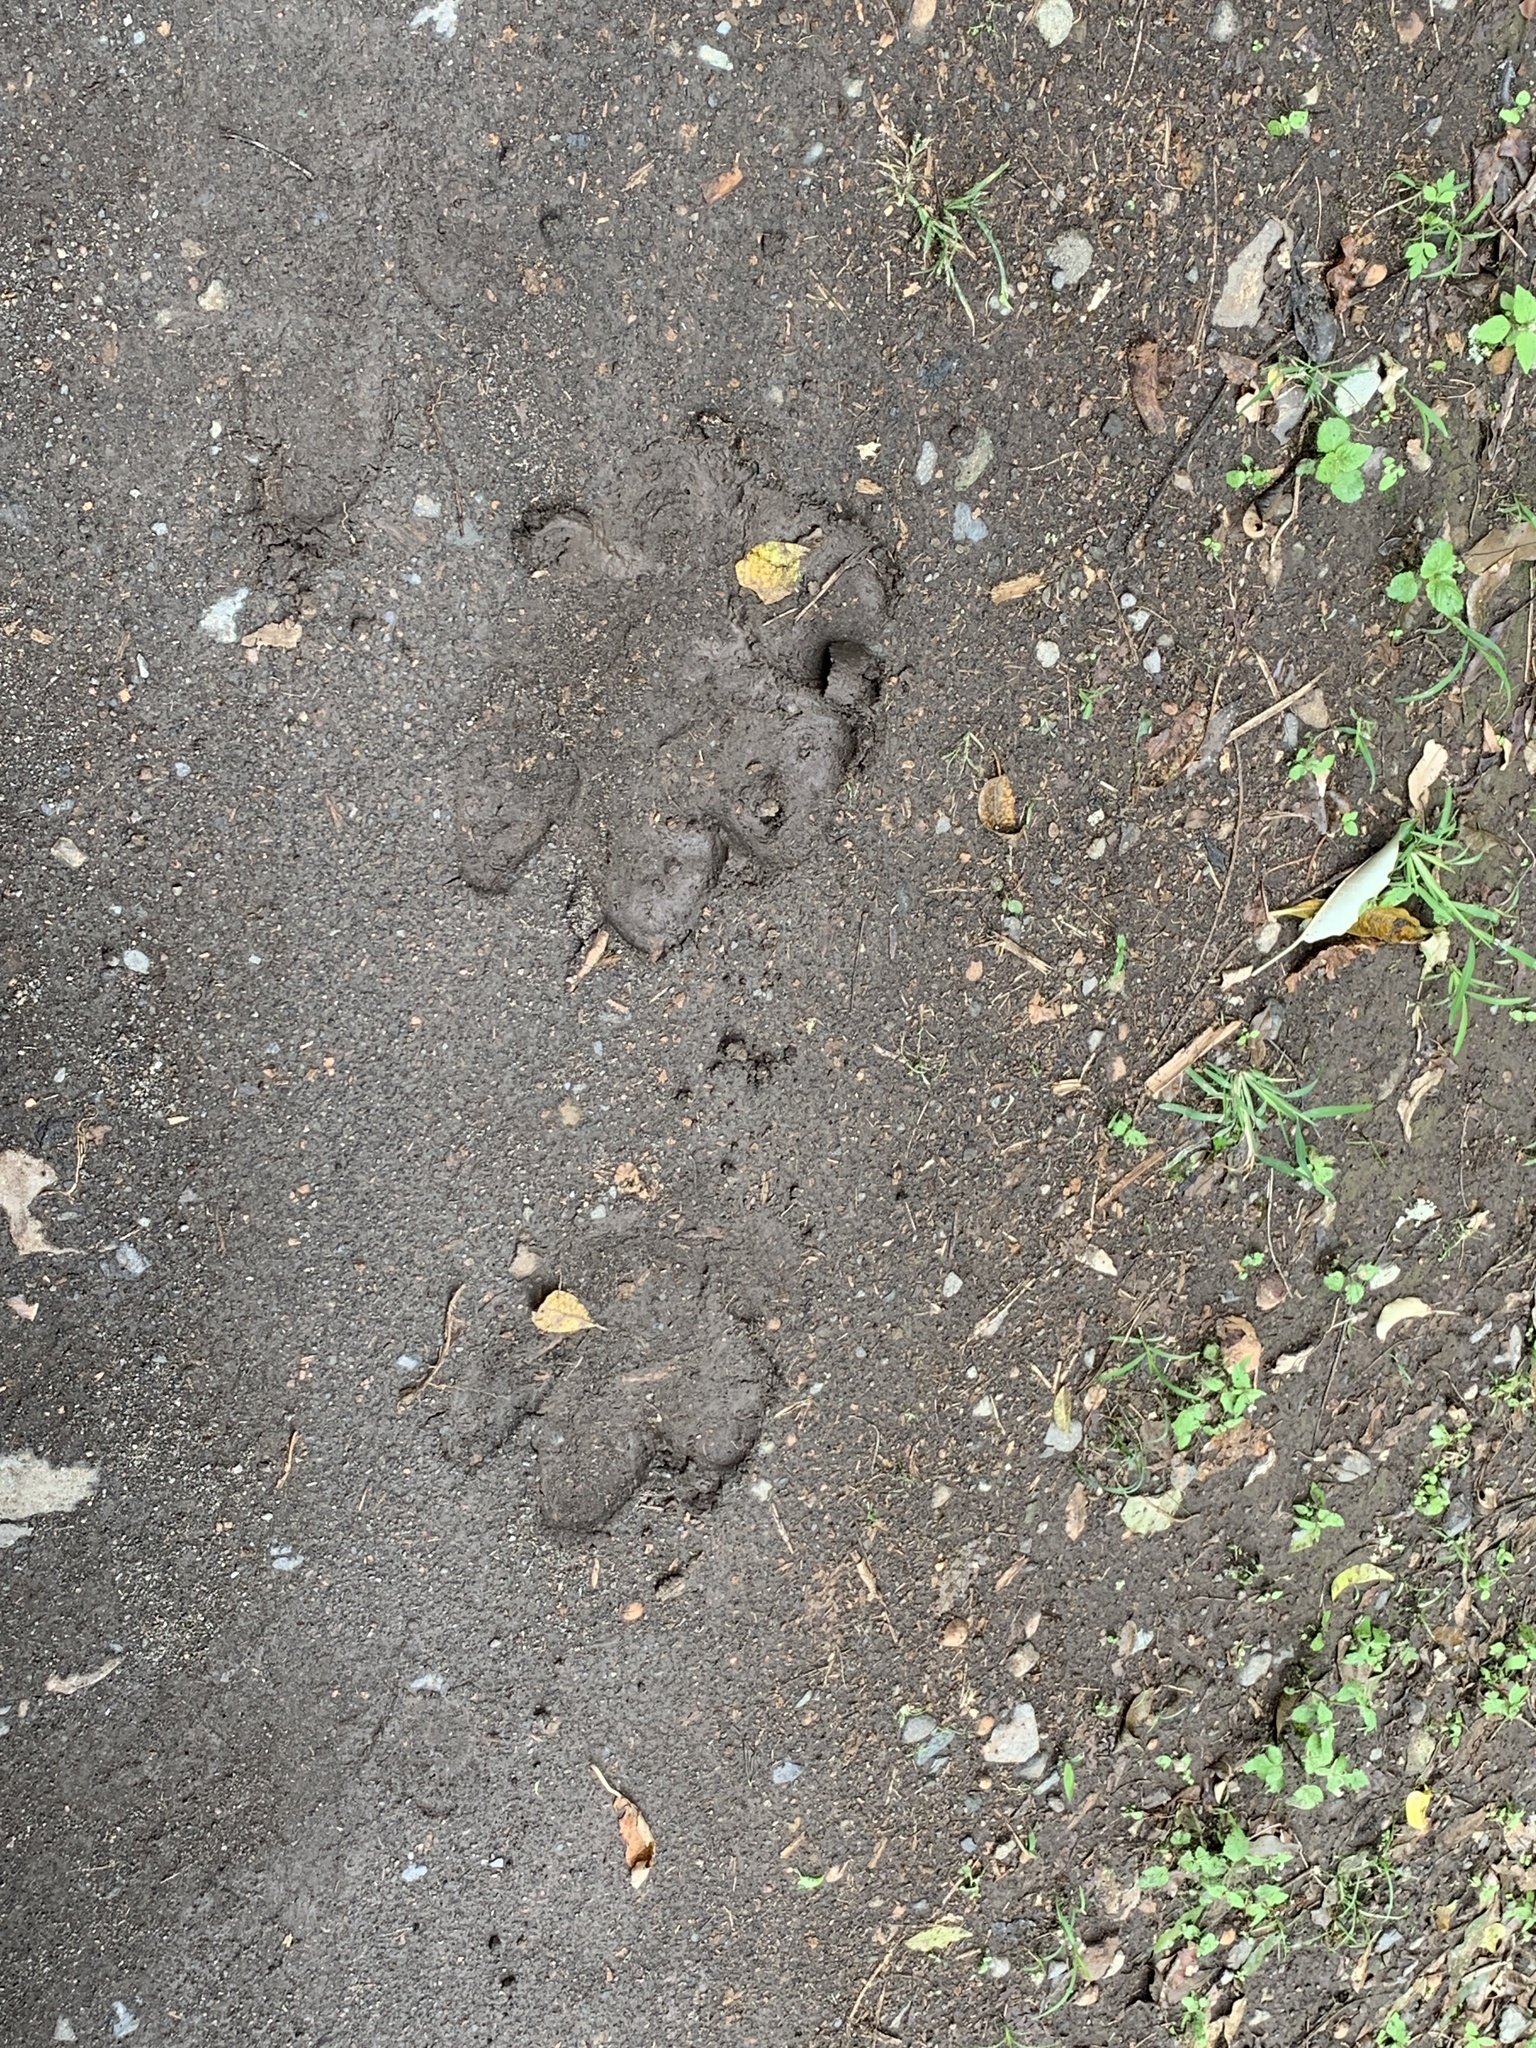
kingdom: Animalia
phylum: Chordata
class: Mammalia
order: Artiodactyla
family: Hippopotamidae
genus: Hippopotamus
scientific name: Hippopotamus amphibius
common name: Common hippopotamus
